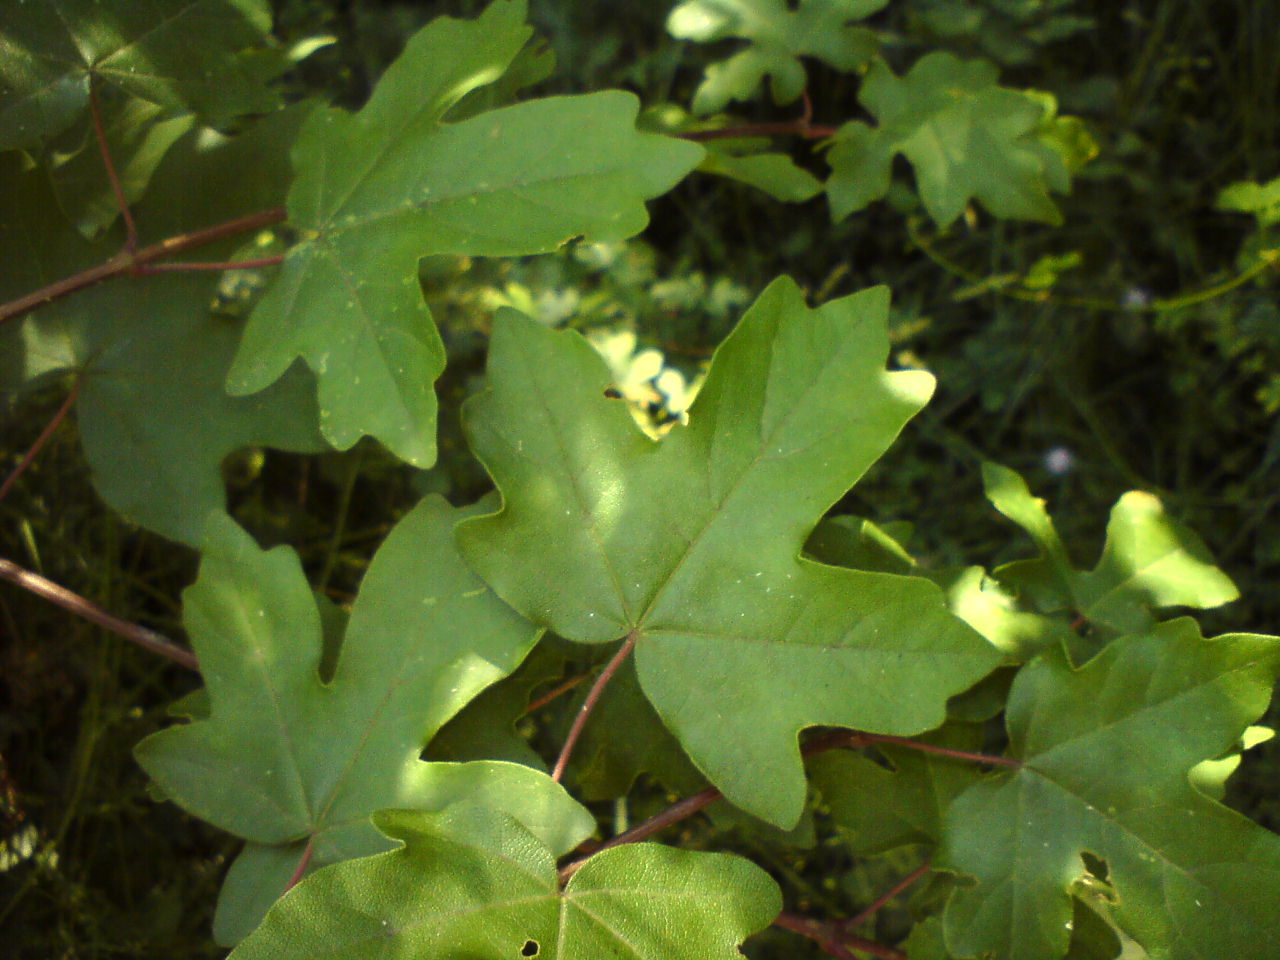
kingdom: Plantae
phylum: Tracheophyta
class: Magnoliopsida
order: Sapindales
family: Sapindaceae
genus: Acer
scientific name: Acer campestre
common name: Field maple
